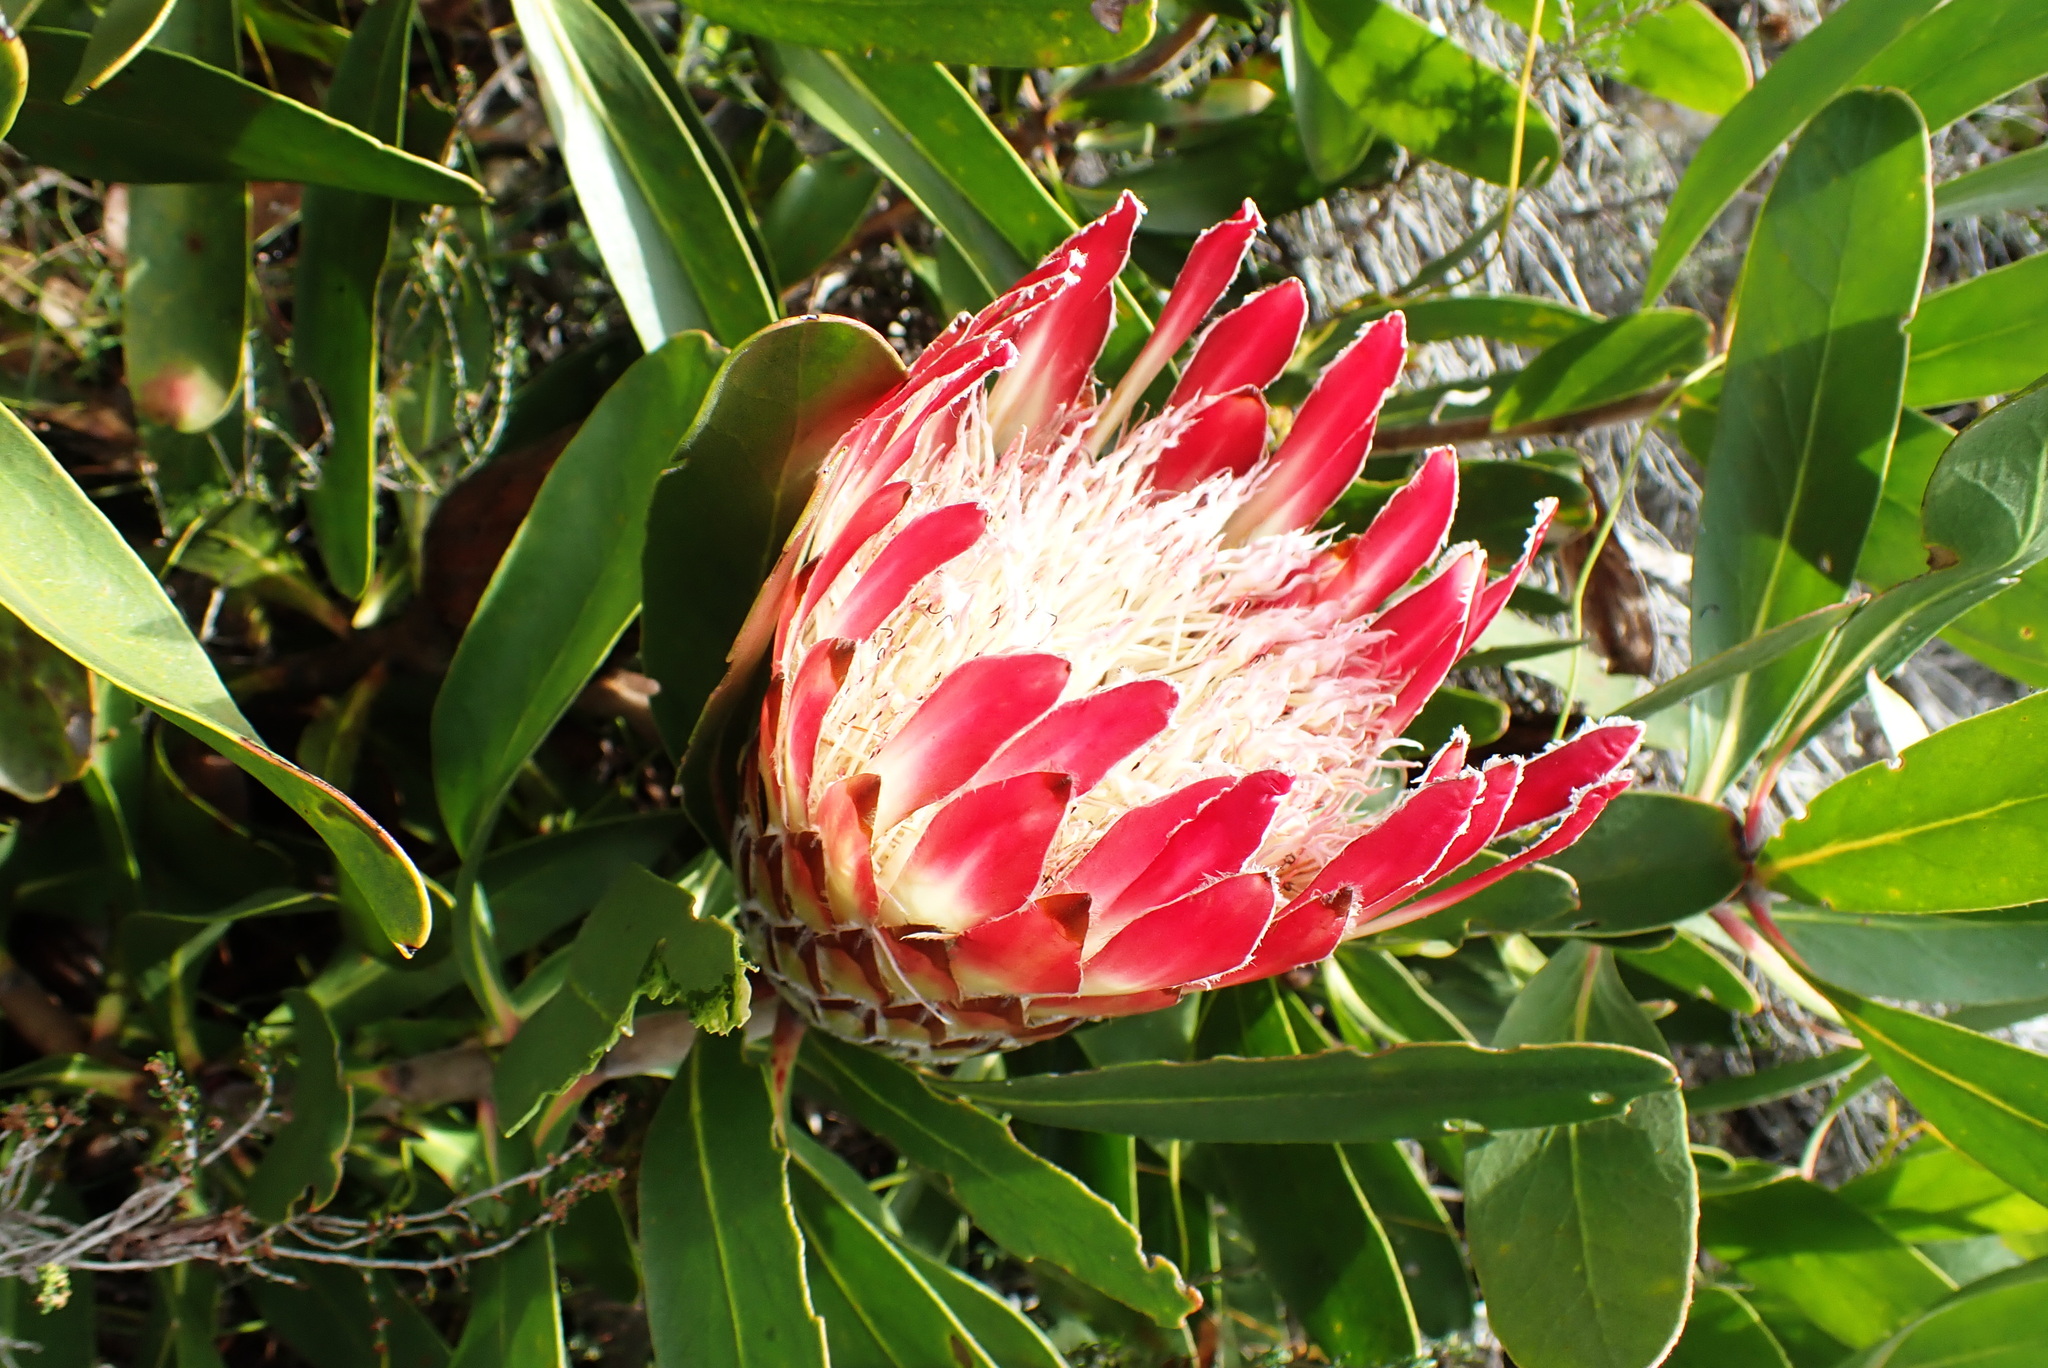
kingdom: Plantae
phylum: Tracheophyta
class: Magnoliopsida
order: Proteales
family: Proteaceae
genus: Protea
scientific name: Protea obtusifolia
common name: Bredasdorp sugarbush
